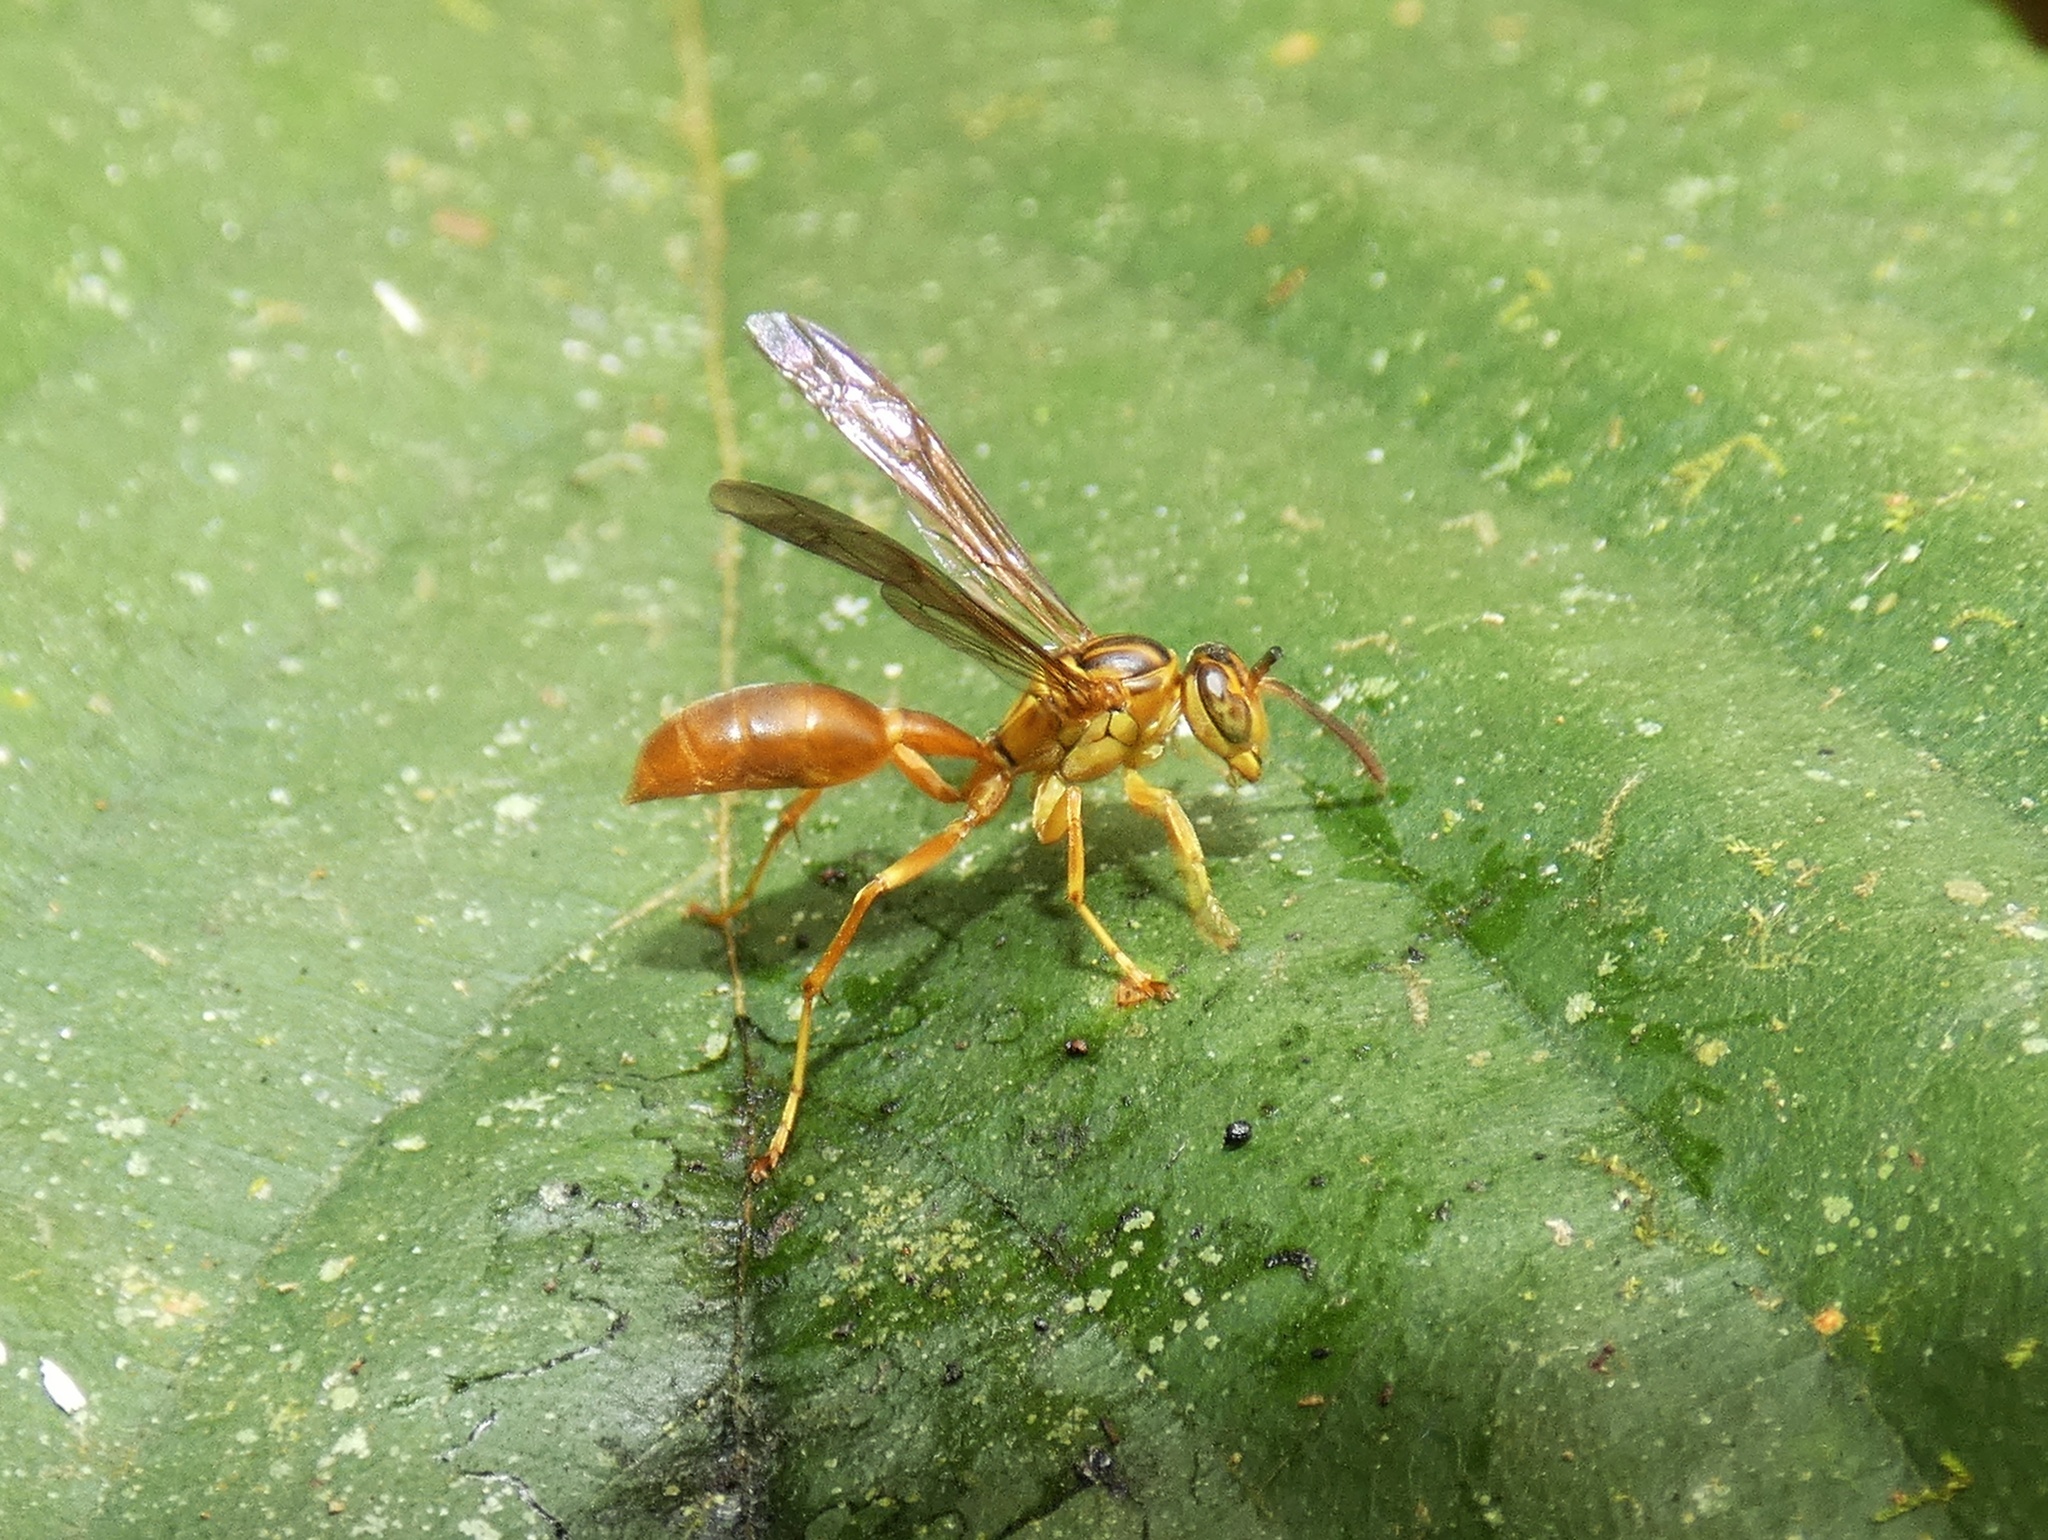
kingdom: Animalia
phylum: Arthropoda
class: Insecta
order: Hymenoptera
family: Vespidae
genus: Agelaia
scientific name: Agelaia centralis
